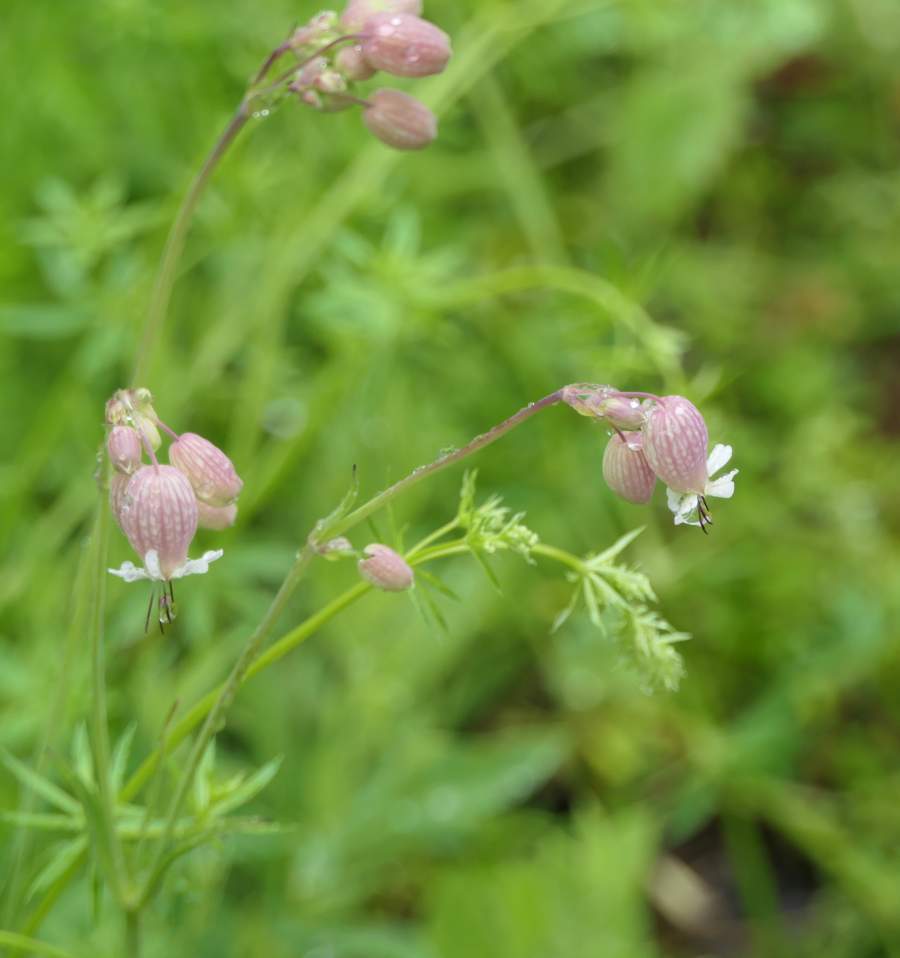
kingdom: Plantae
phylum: Tracheophyta
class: Magnoliopsida
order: Caryophyllales
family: Caryophyllaceae
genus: Silene
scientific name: Silene vulgaris
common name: Bladder campion
